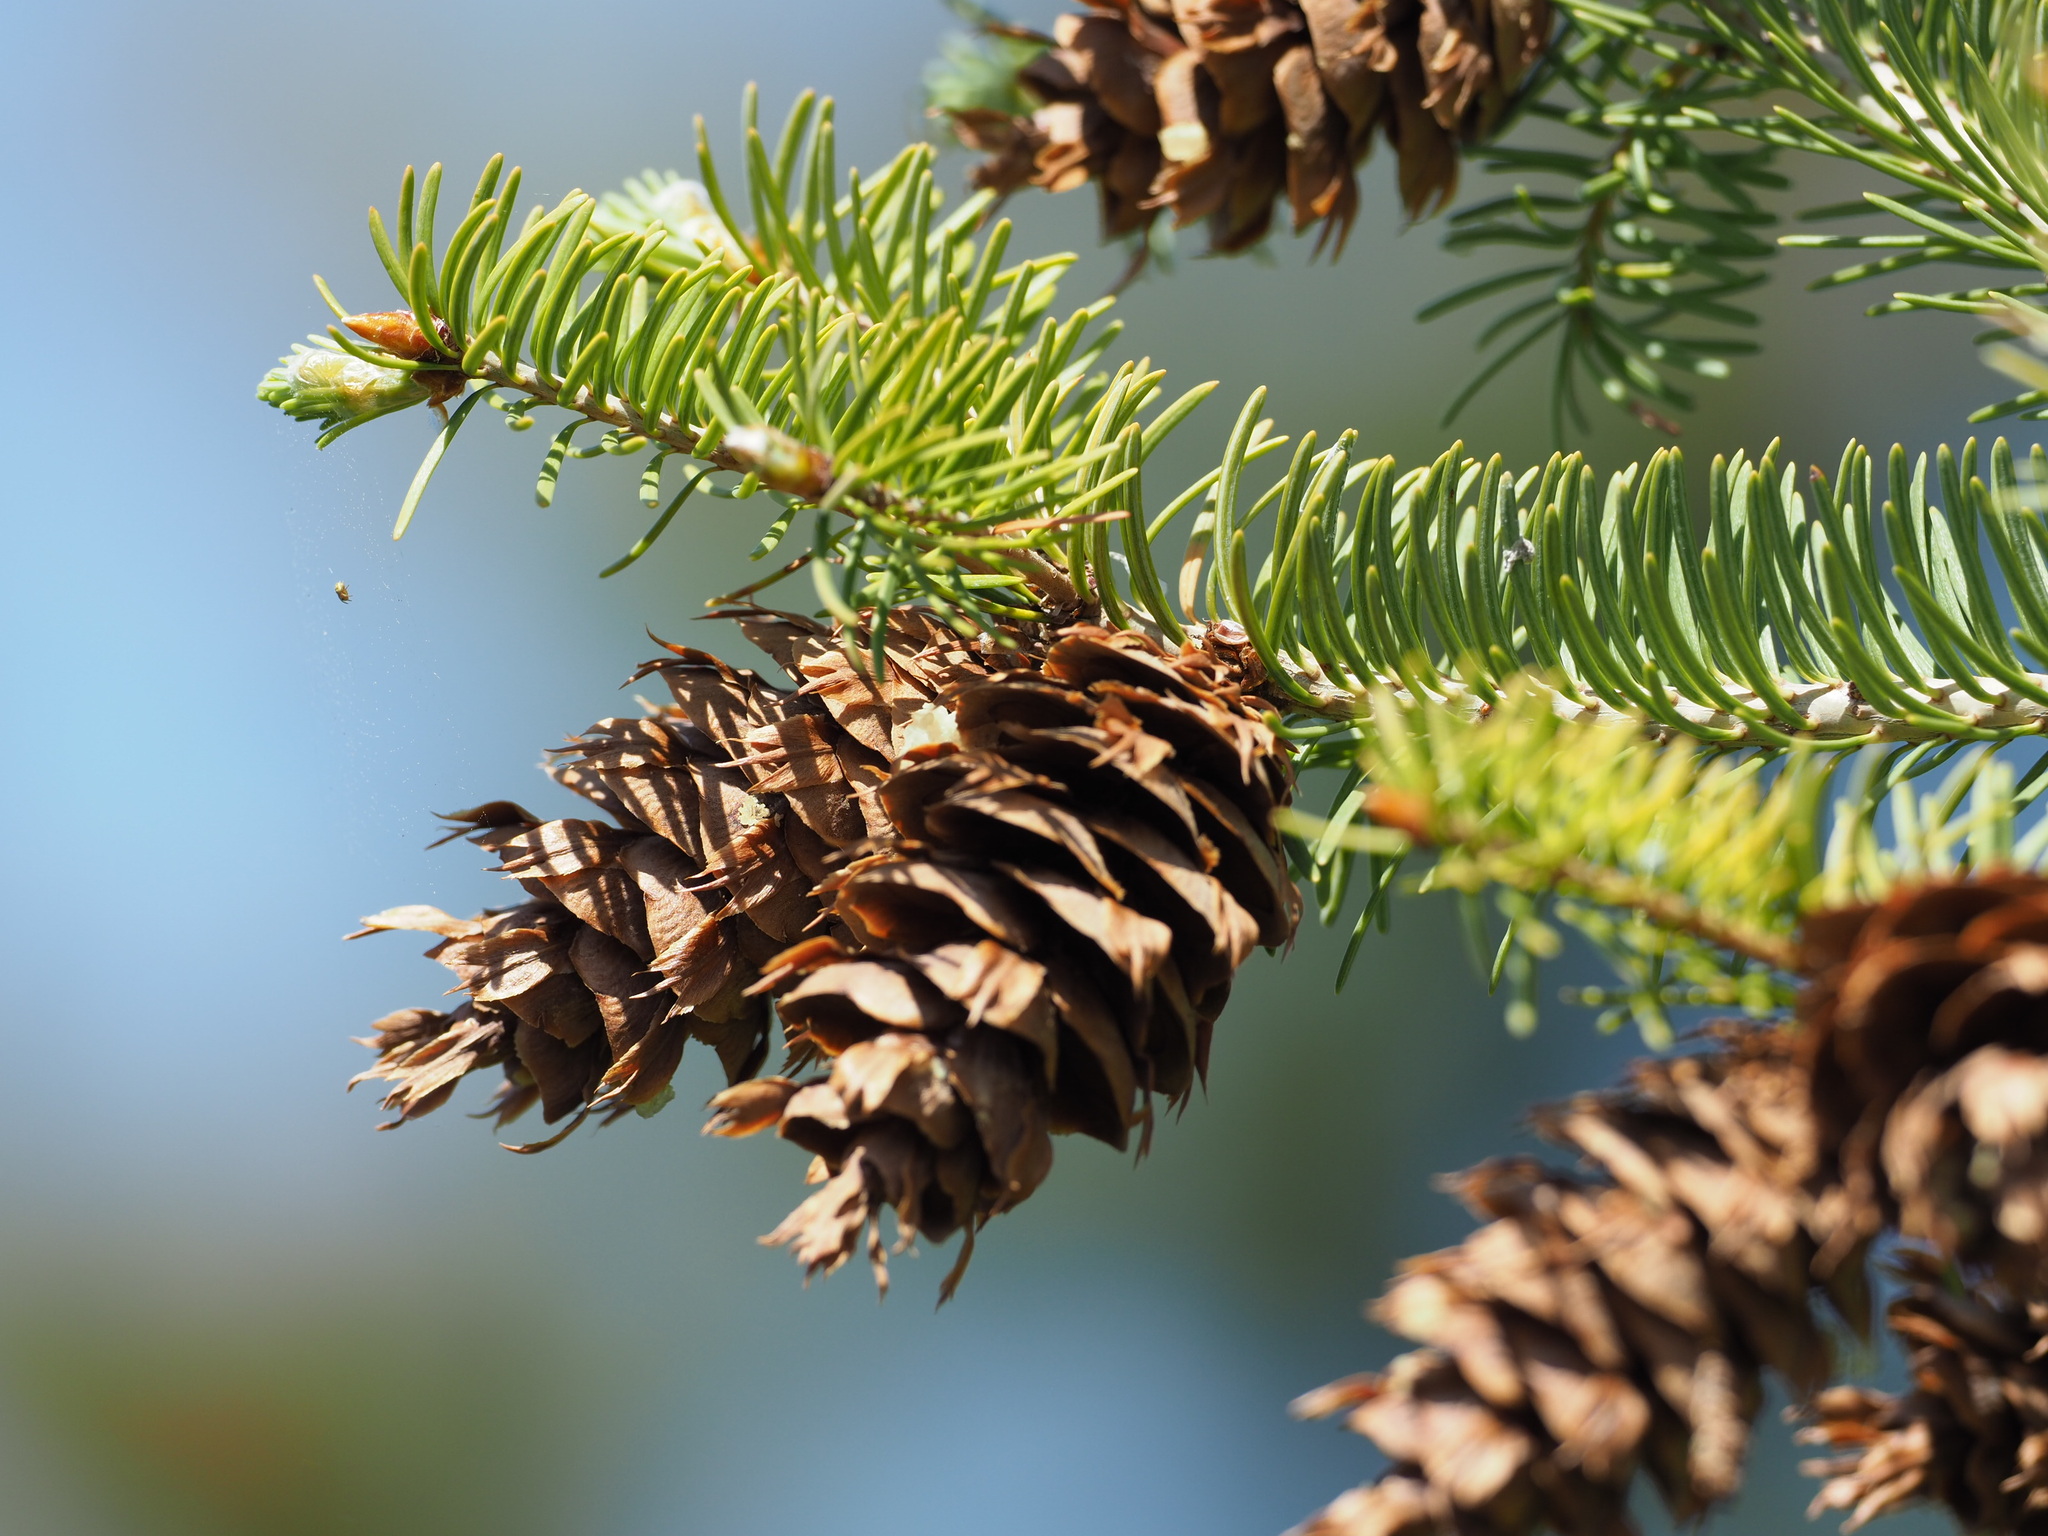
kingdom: Plantae
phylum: Tracheophyta
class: Pinopsida
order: Pinales
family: Pinaceae
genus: Pseudotsuga
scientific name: Pseudotsuga menziesii
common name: Douglas fir
